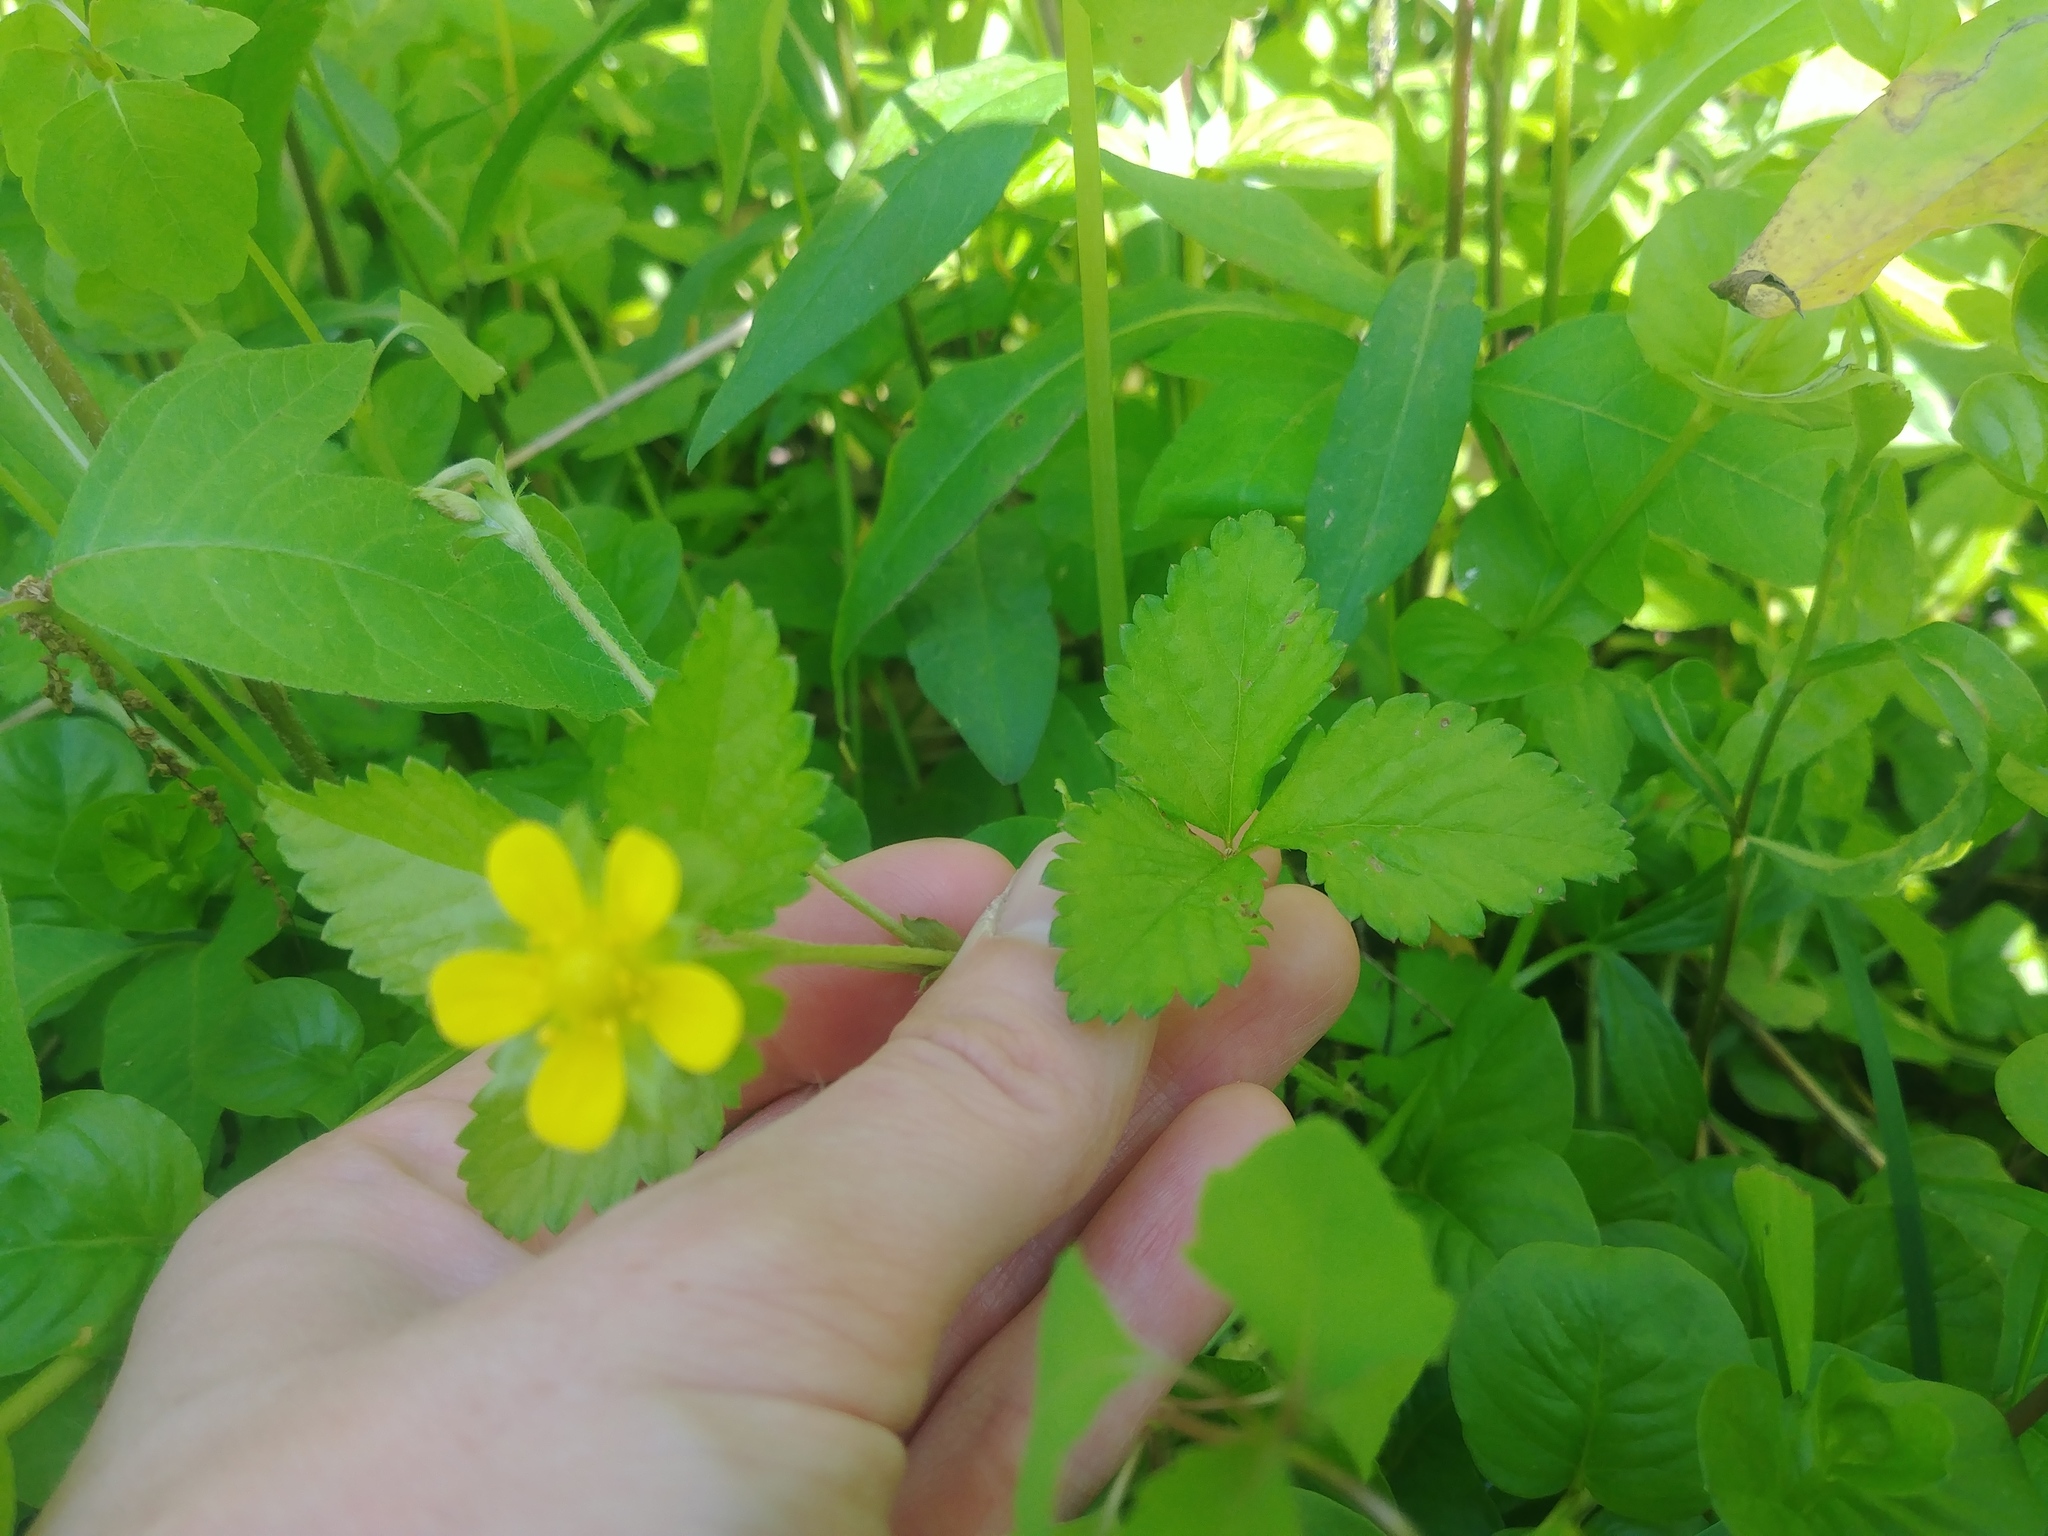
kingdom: Plantae
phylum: Tracheophyta
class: Magnoliopsida
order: Rosales
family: Rosaceae
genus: Potentilla
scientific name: Potentilla indica
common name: Yellow-flowered strawberry
